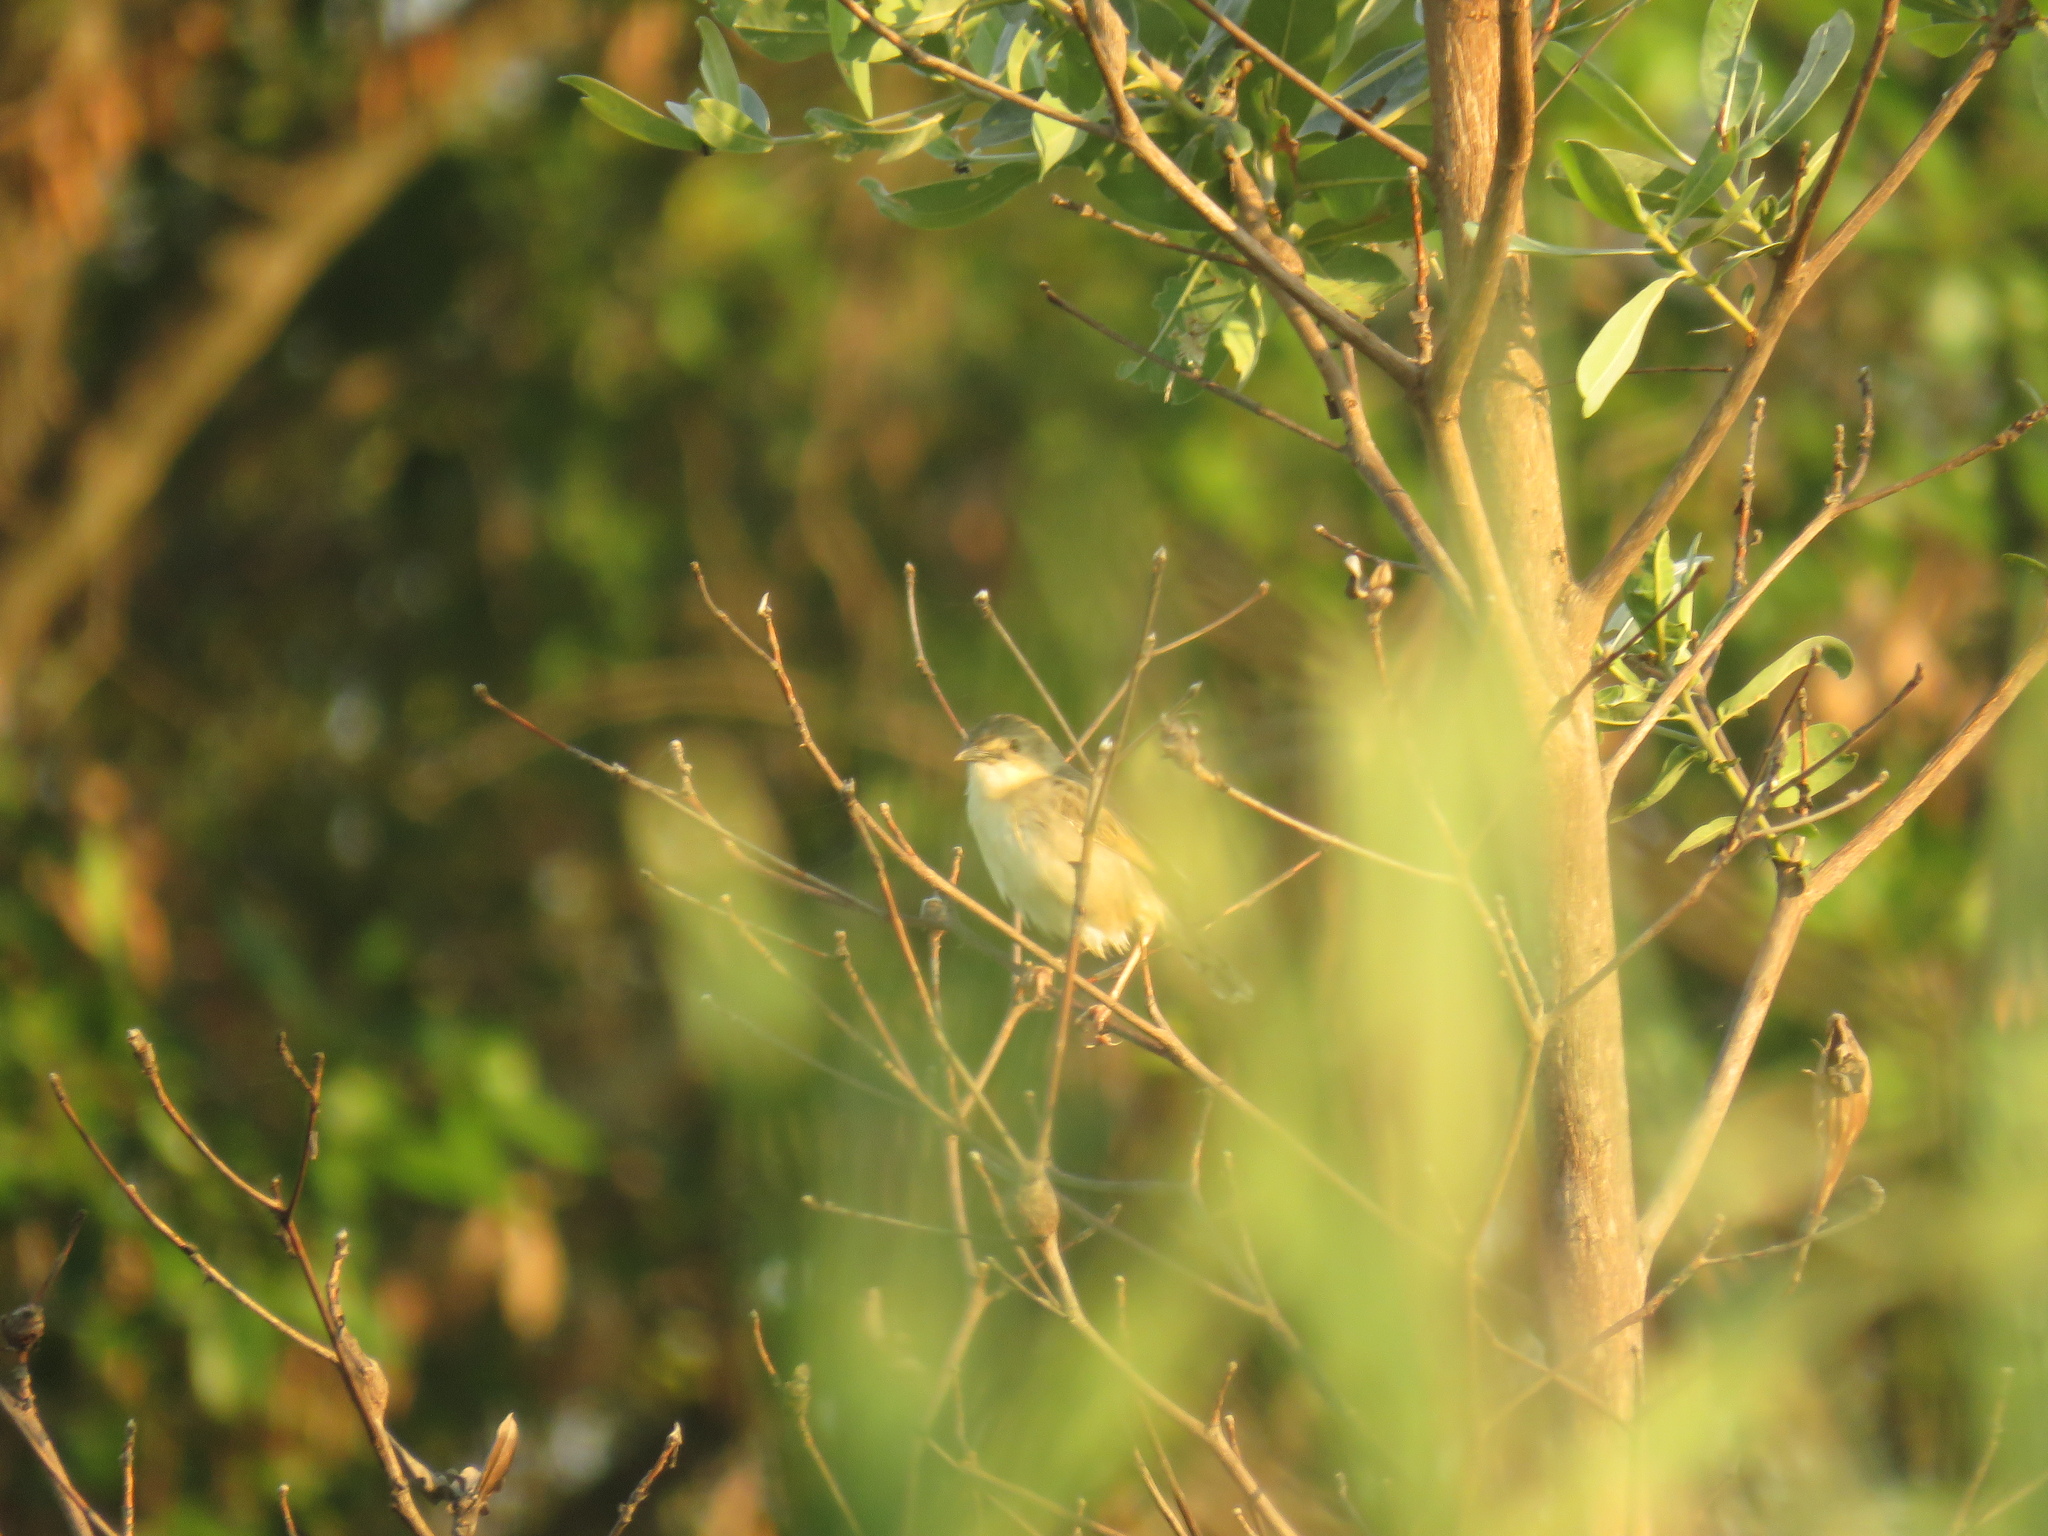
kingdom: Animalia
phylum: Chordata
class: Aves
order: Passeriformes
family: Cisticolidae
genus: Cisticola
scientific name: Cisticola natalensis
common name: Croaking cisticola
